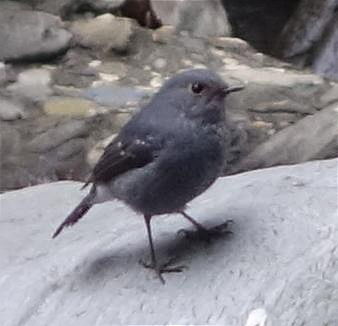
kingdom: Animalia
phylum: Chordata
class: Aves
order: Passeriformes
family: Muscicapidae
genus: Phoenicurus
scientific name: Phoenicurus fuliginosus
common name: Plumbeous water redstart
